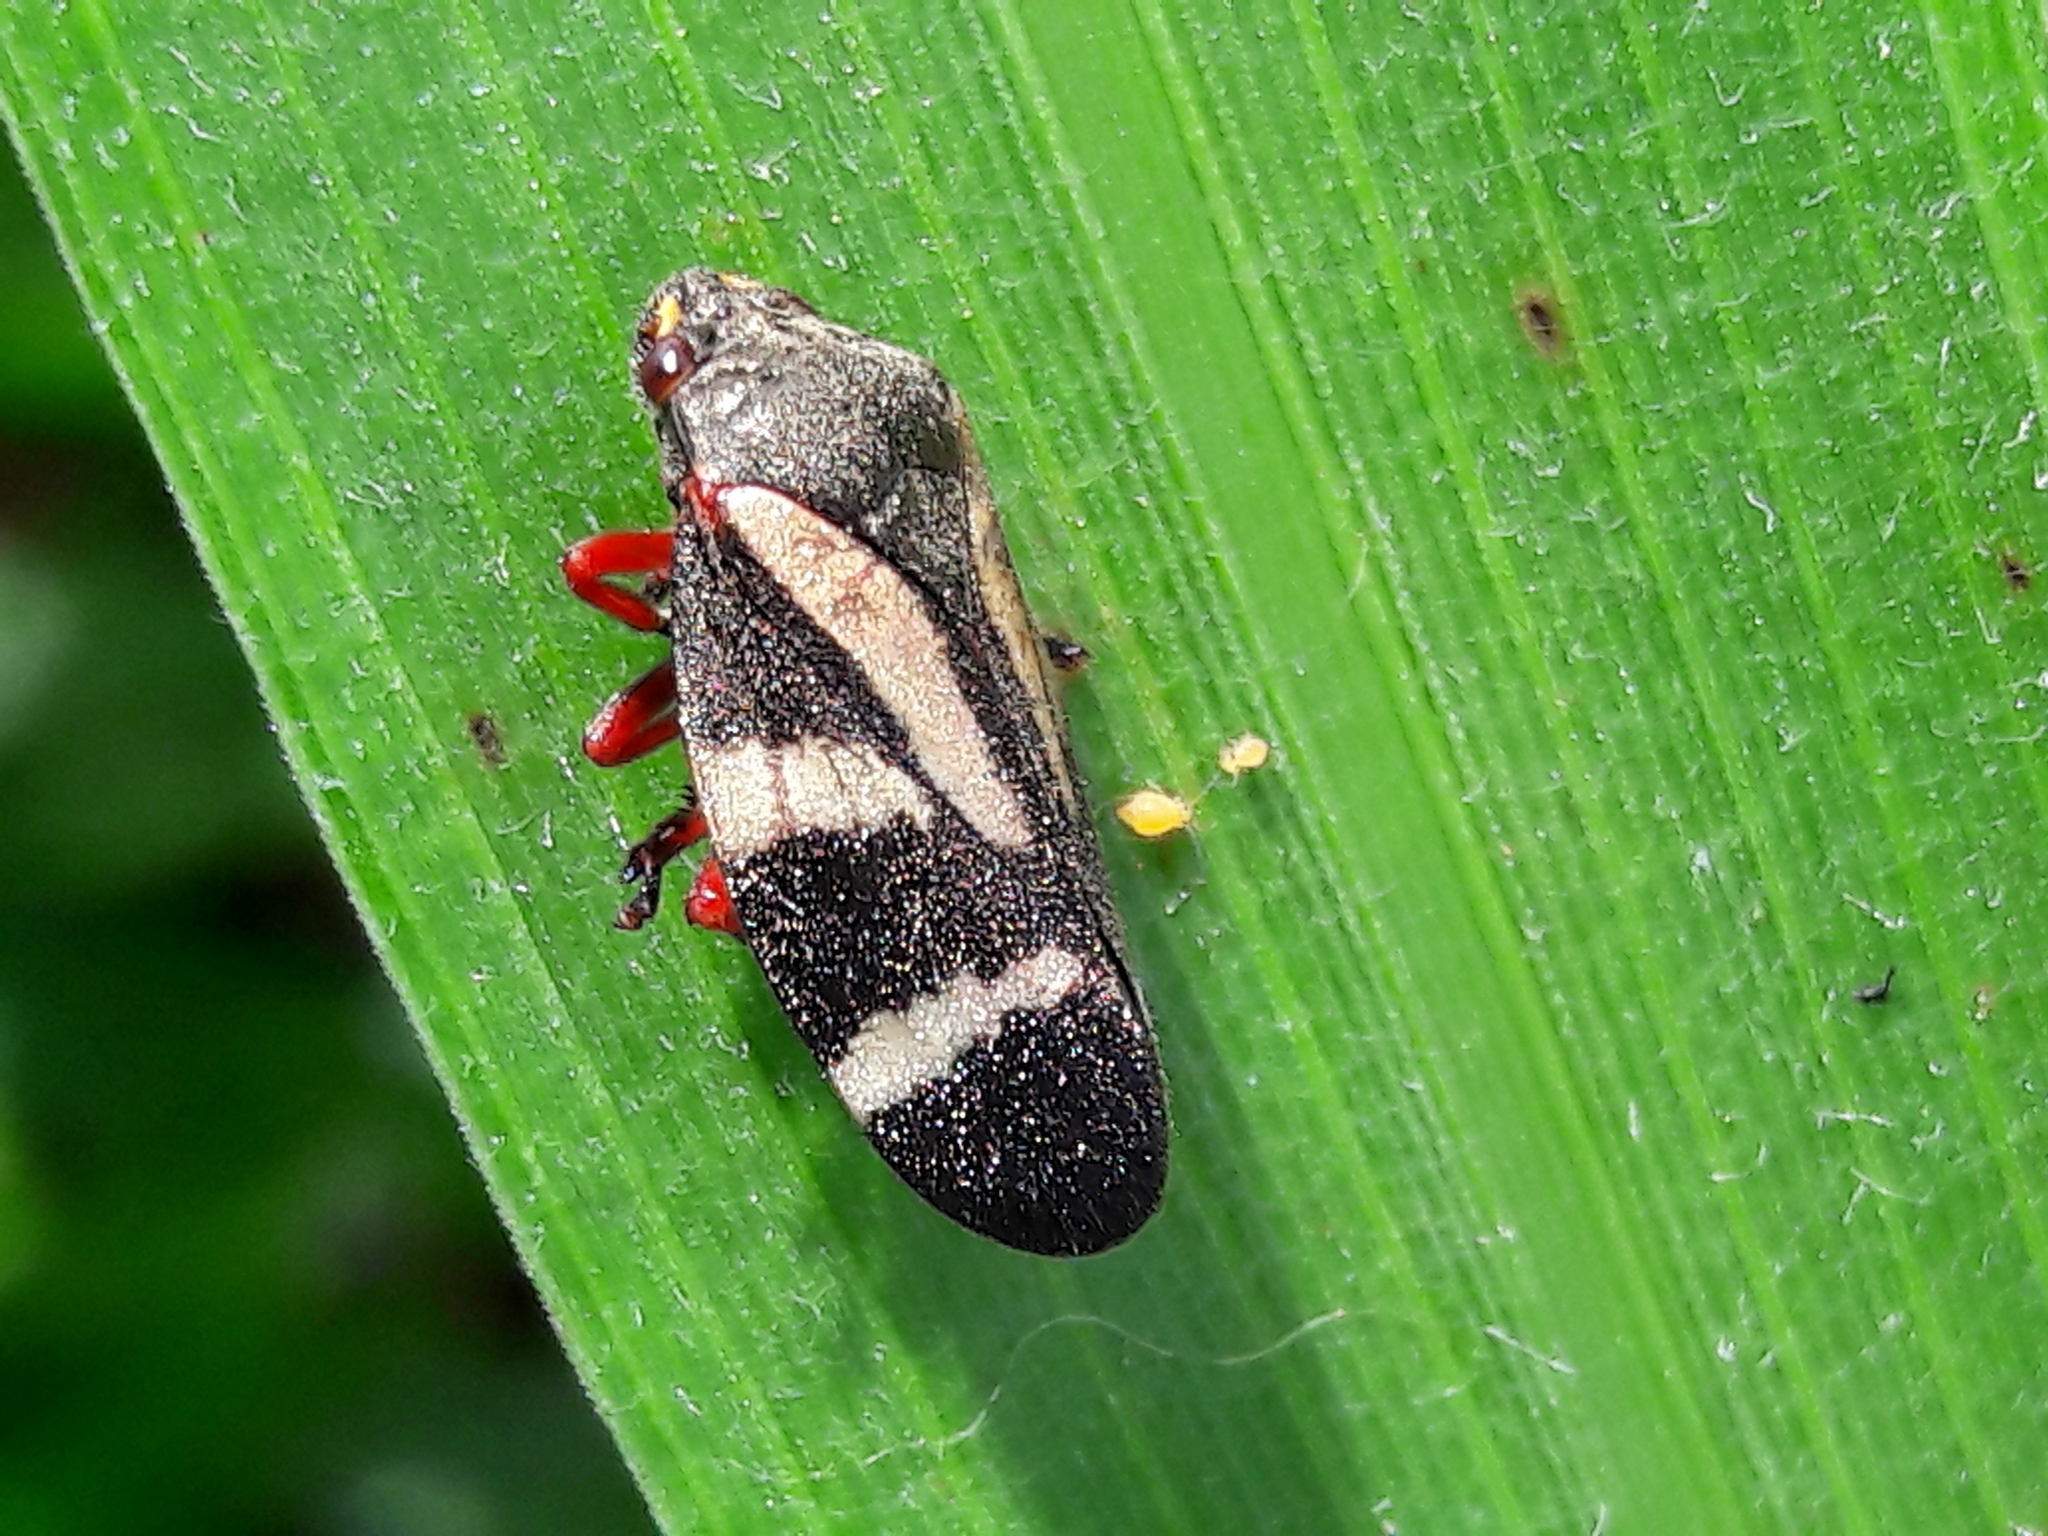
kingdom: Animalia
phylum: Arthropoda
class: Insecta
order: Hemiptera
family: Cercopidae
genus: Deois
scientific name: Deois flavopicta
